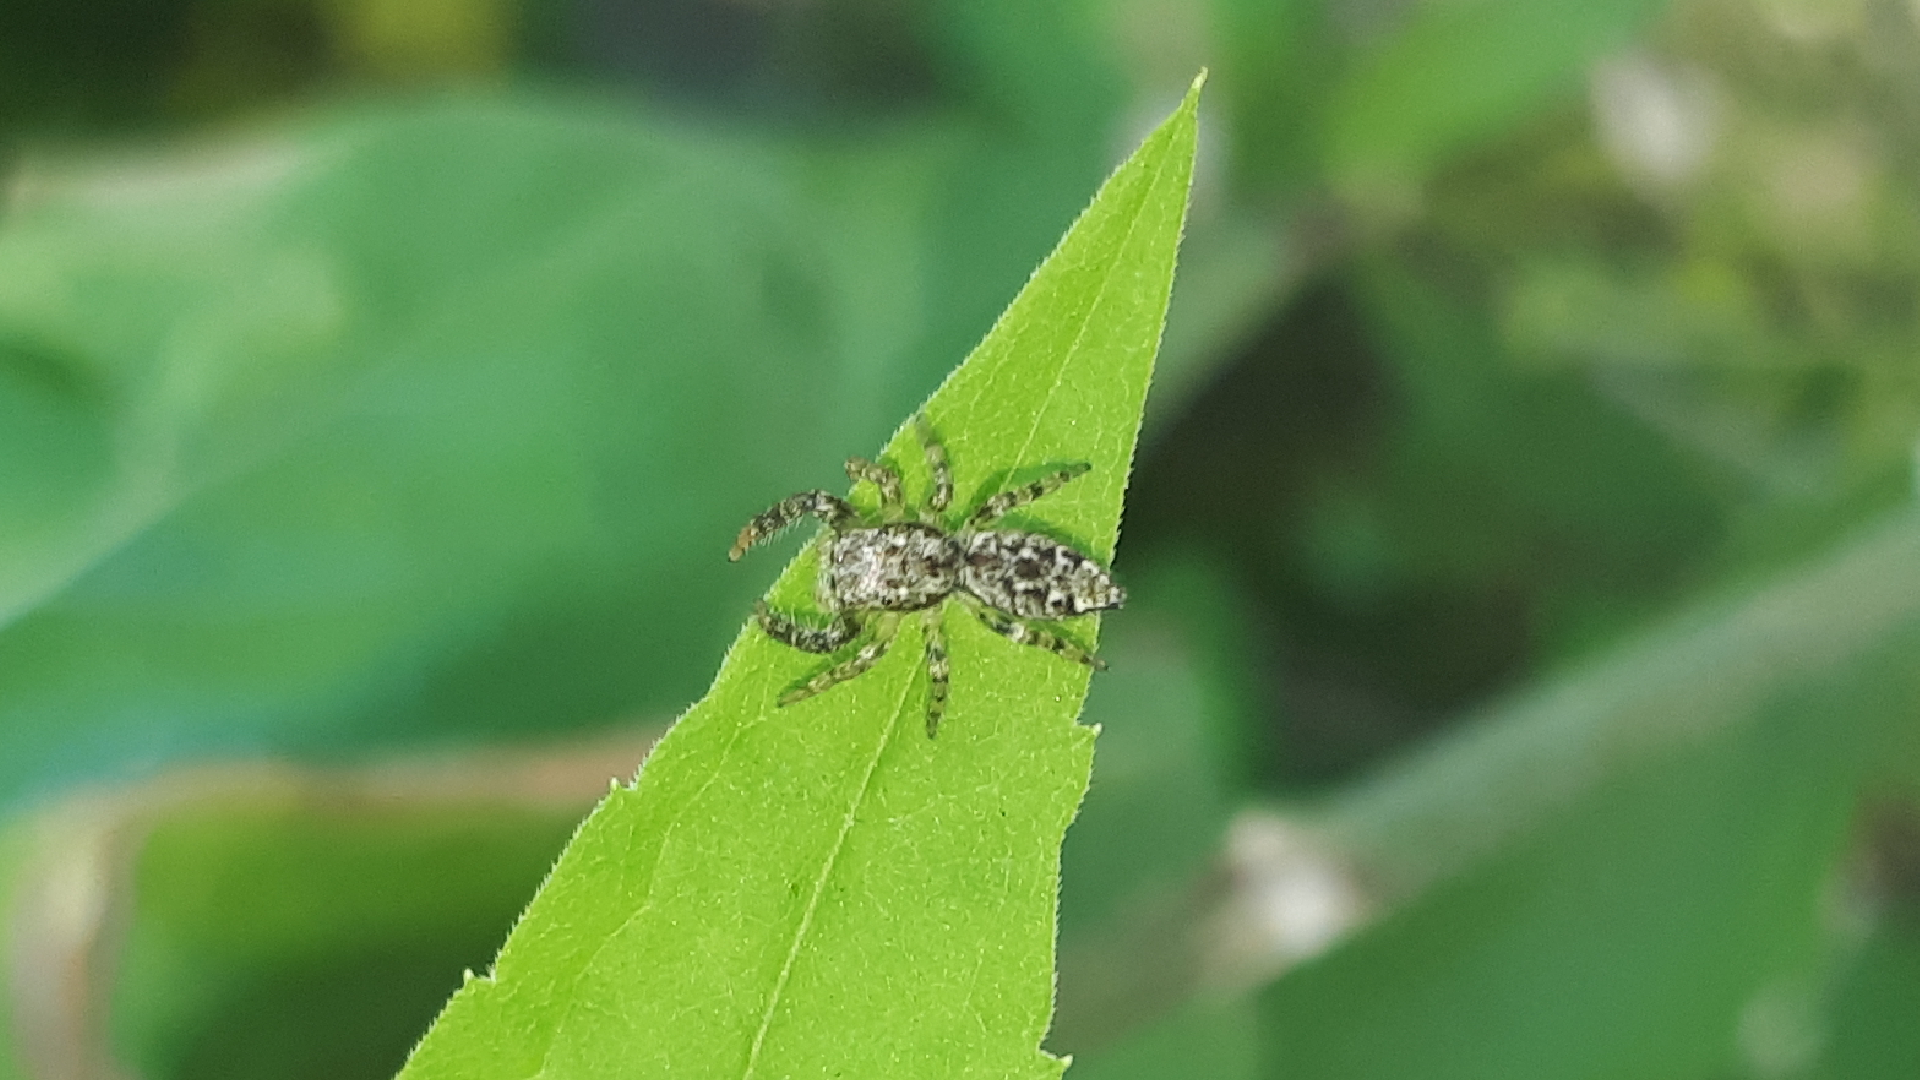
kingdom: Animalia
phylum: Arthropoda
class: Arachnida
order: Araneae
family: Salticidae
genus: Marpissa
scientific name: Marpissa muscosa
